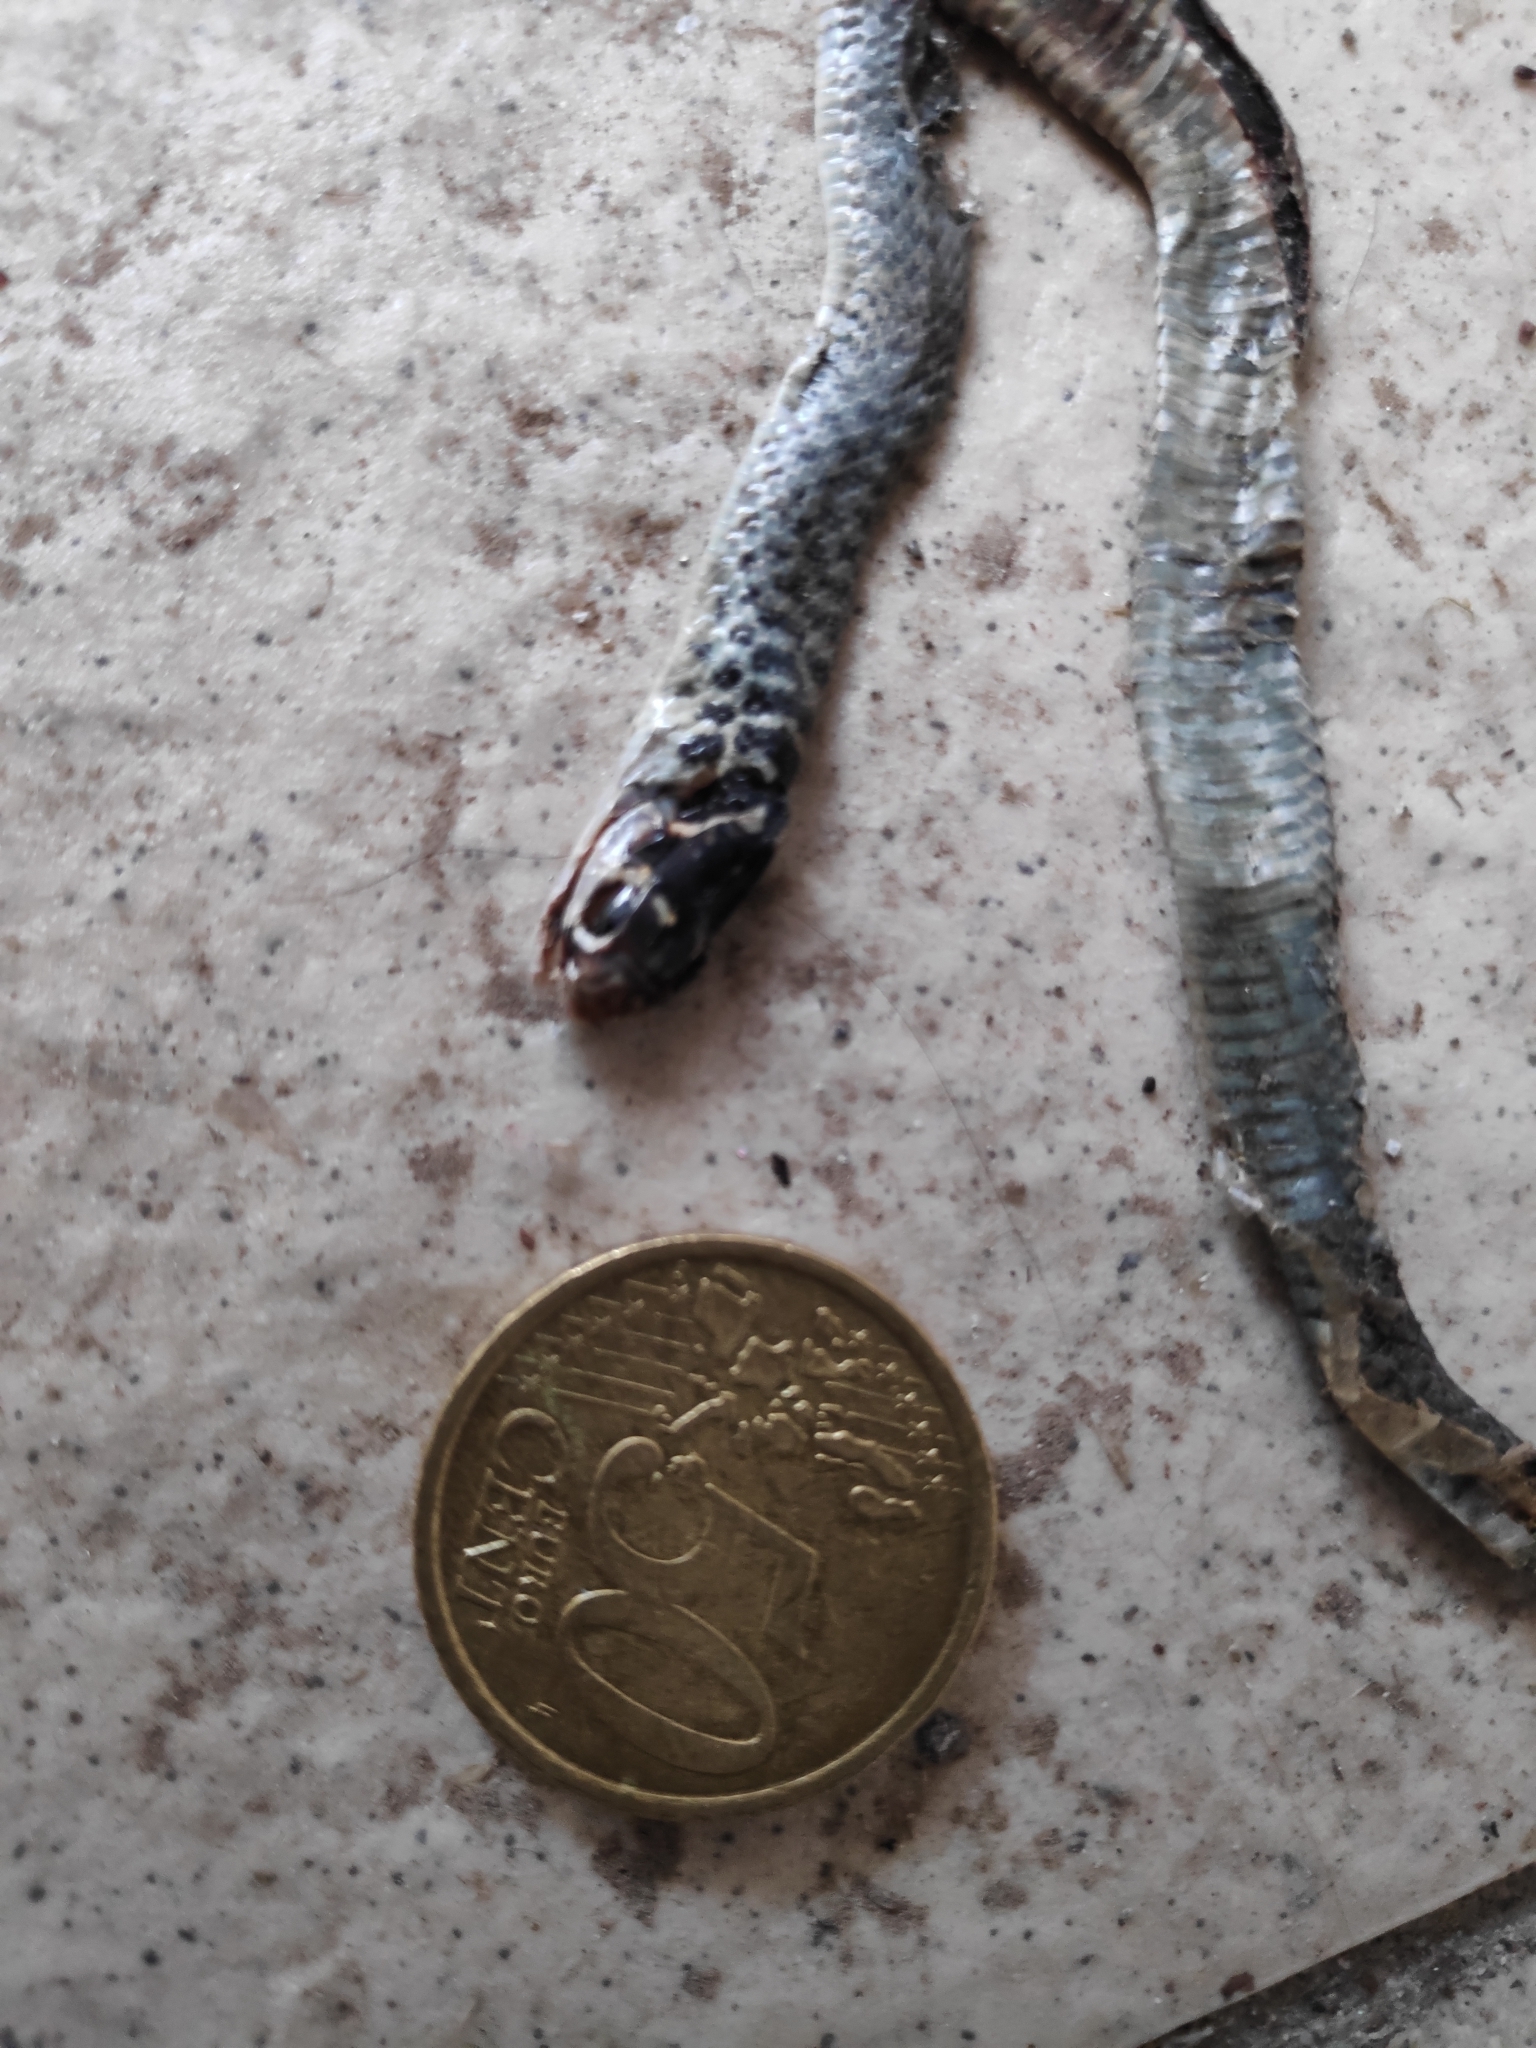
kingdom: Animalia
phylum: Chordata
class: Squamata
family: Colubridae
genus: Hierophis
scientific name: Hierophis viridiflavus
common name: Green whip snake
